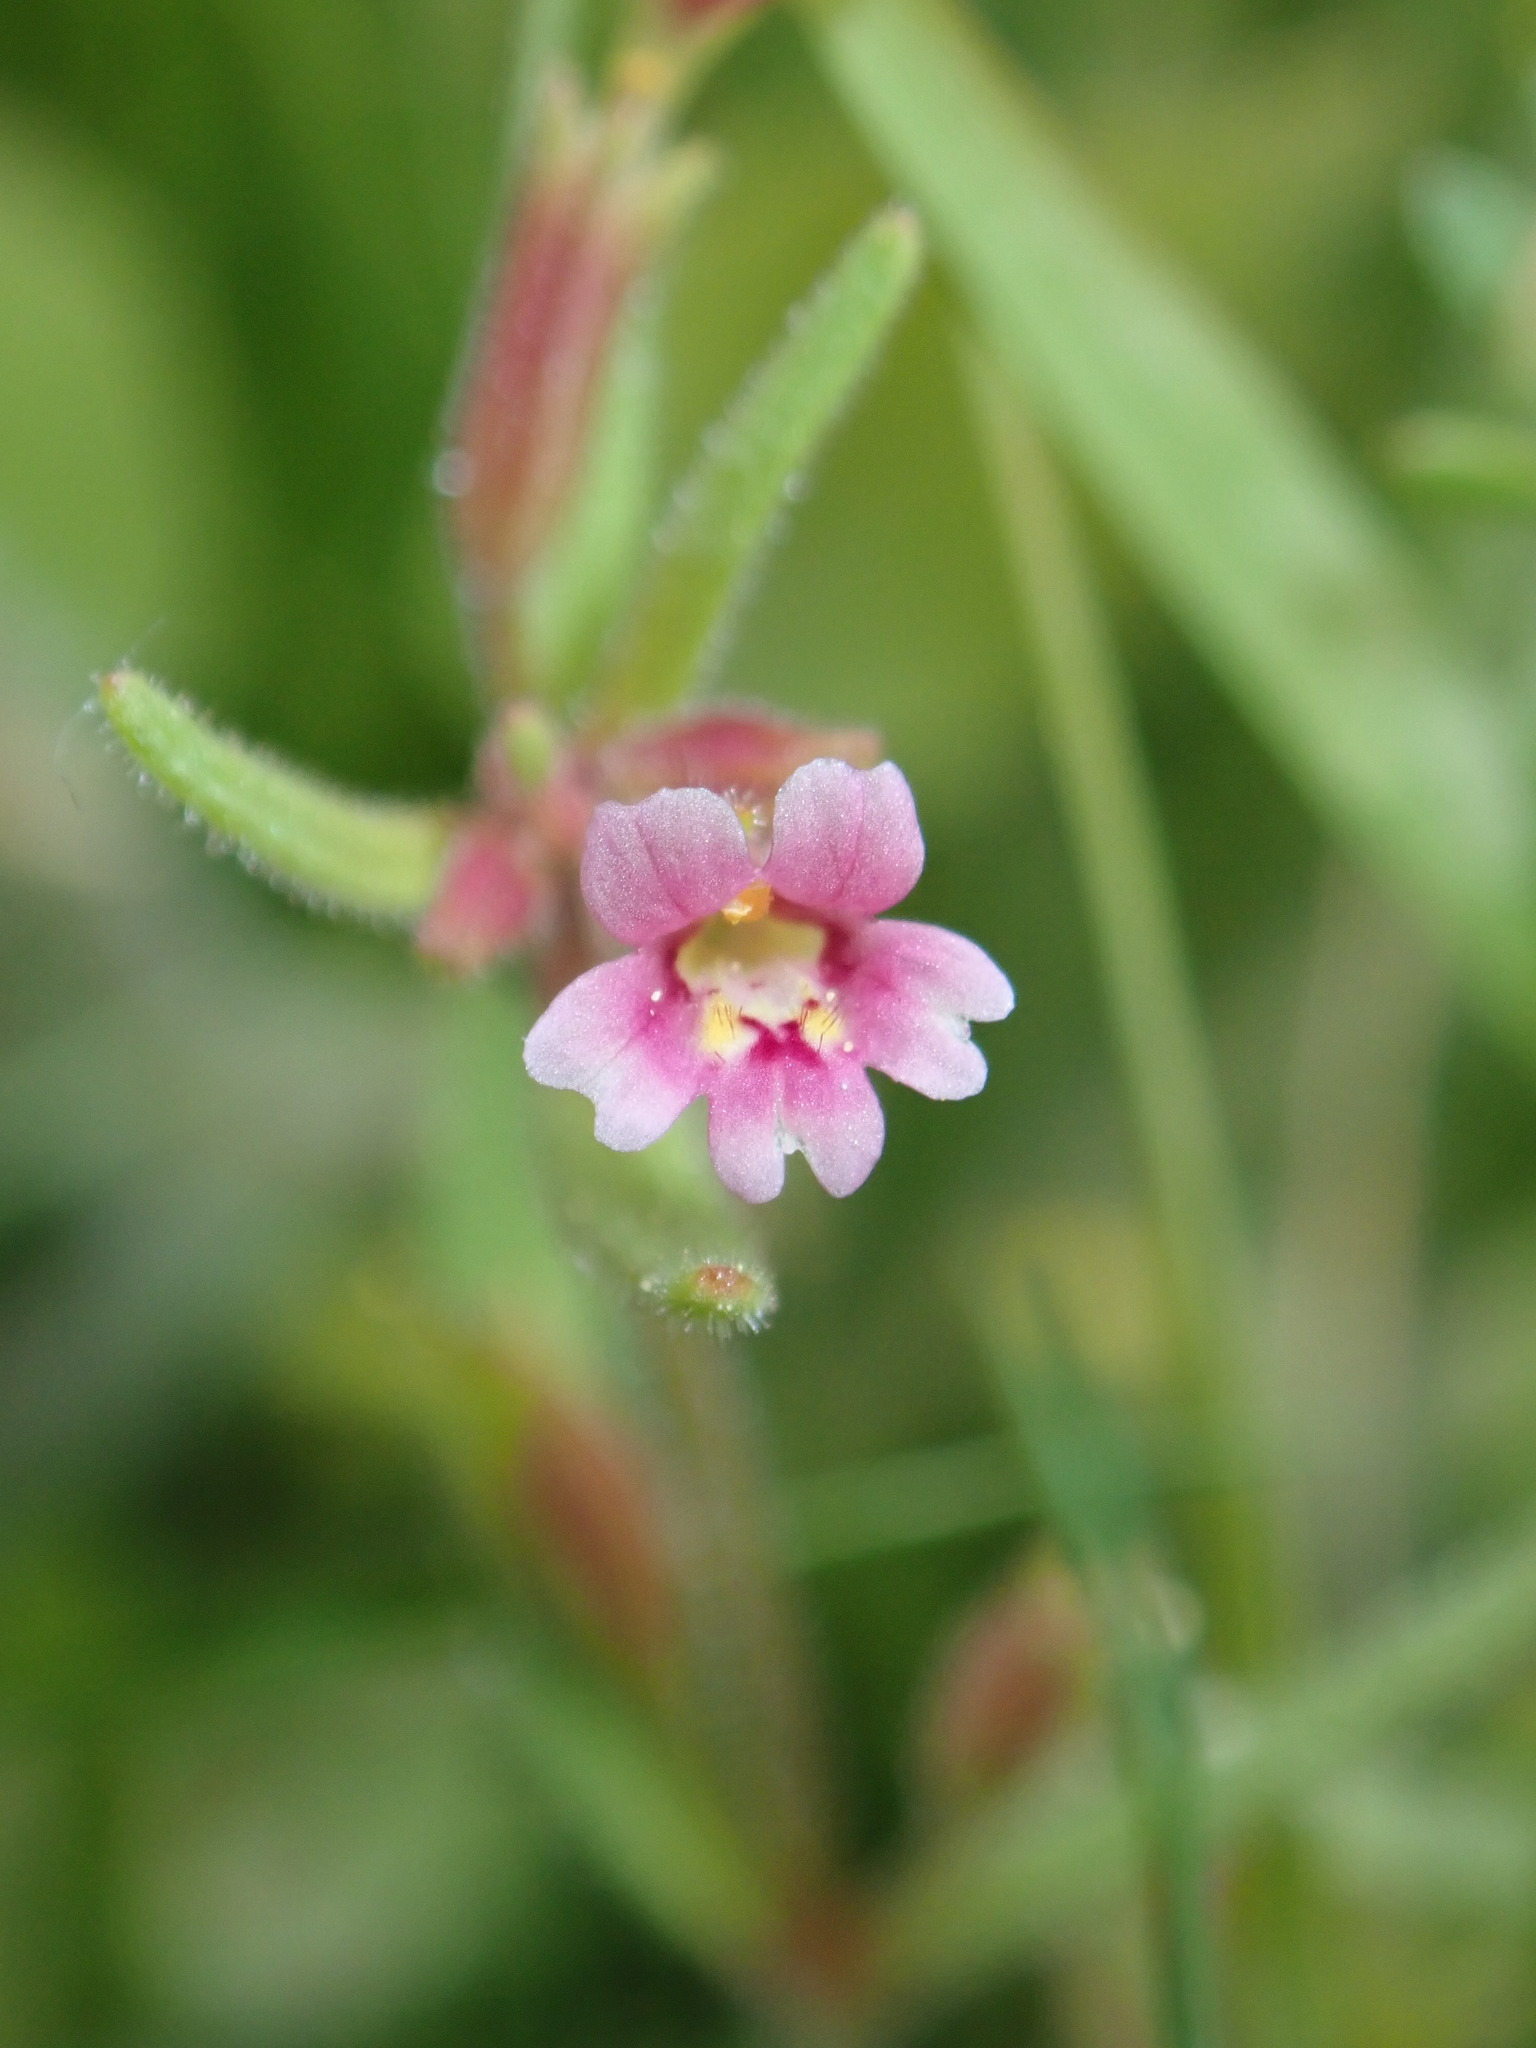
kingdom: Plantae
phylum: Tracheophyta
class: Magnoliopsida
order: Lamiales
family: Phrymaceae
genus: Erythranthe
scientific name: Erythranthe breweri
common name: Brewer's monkeyflower
